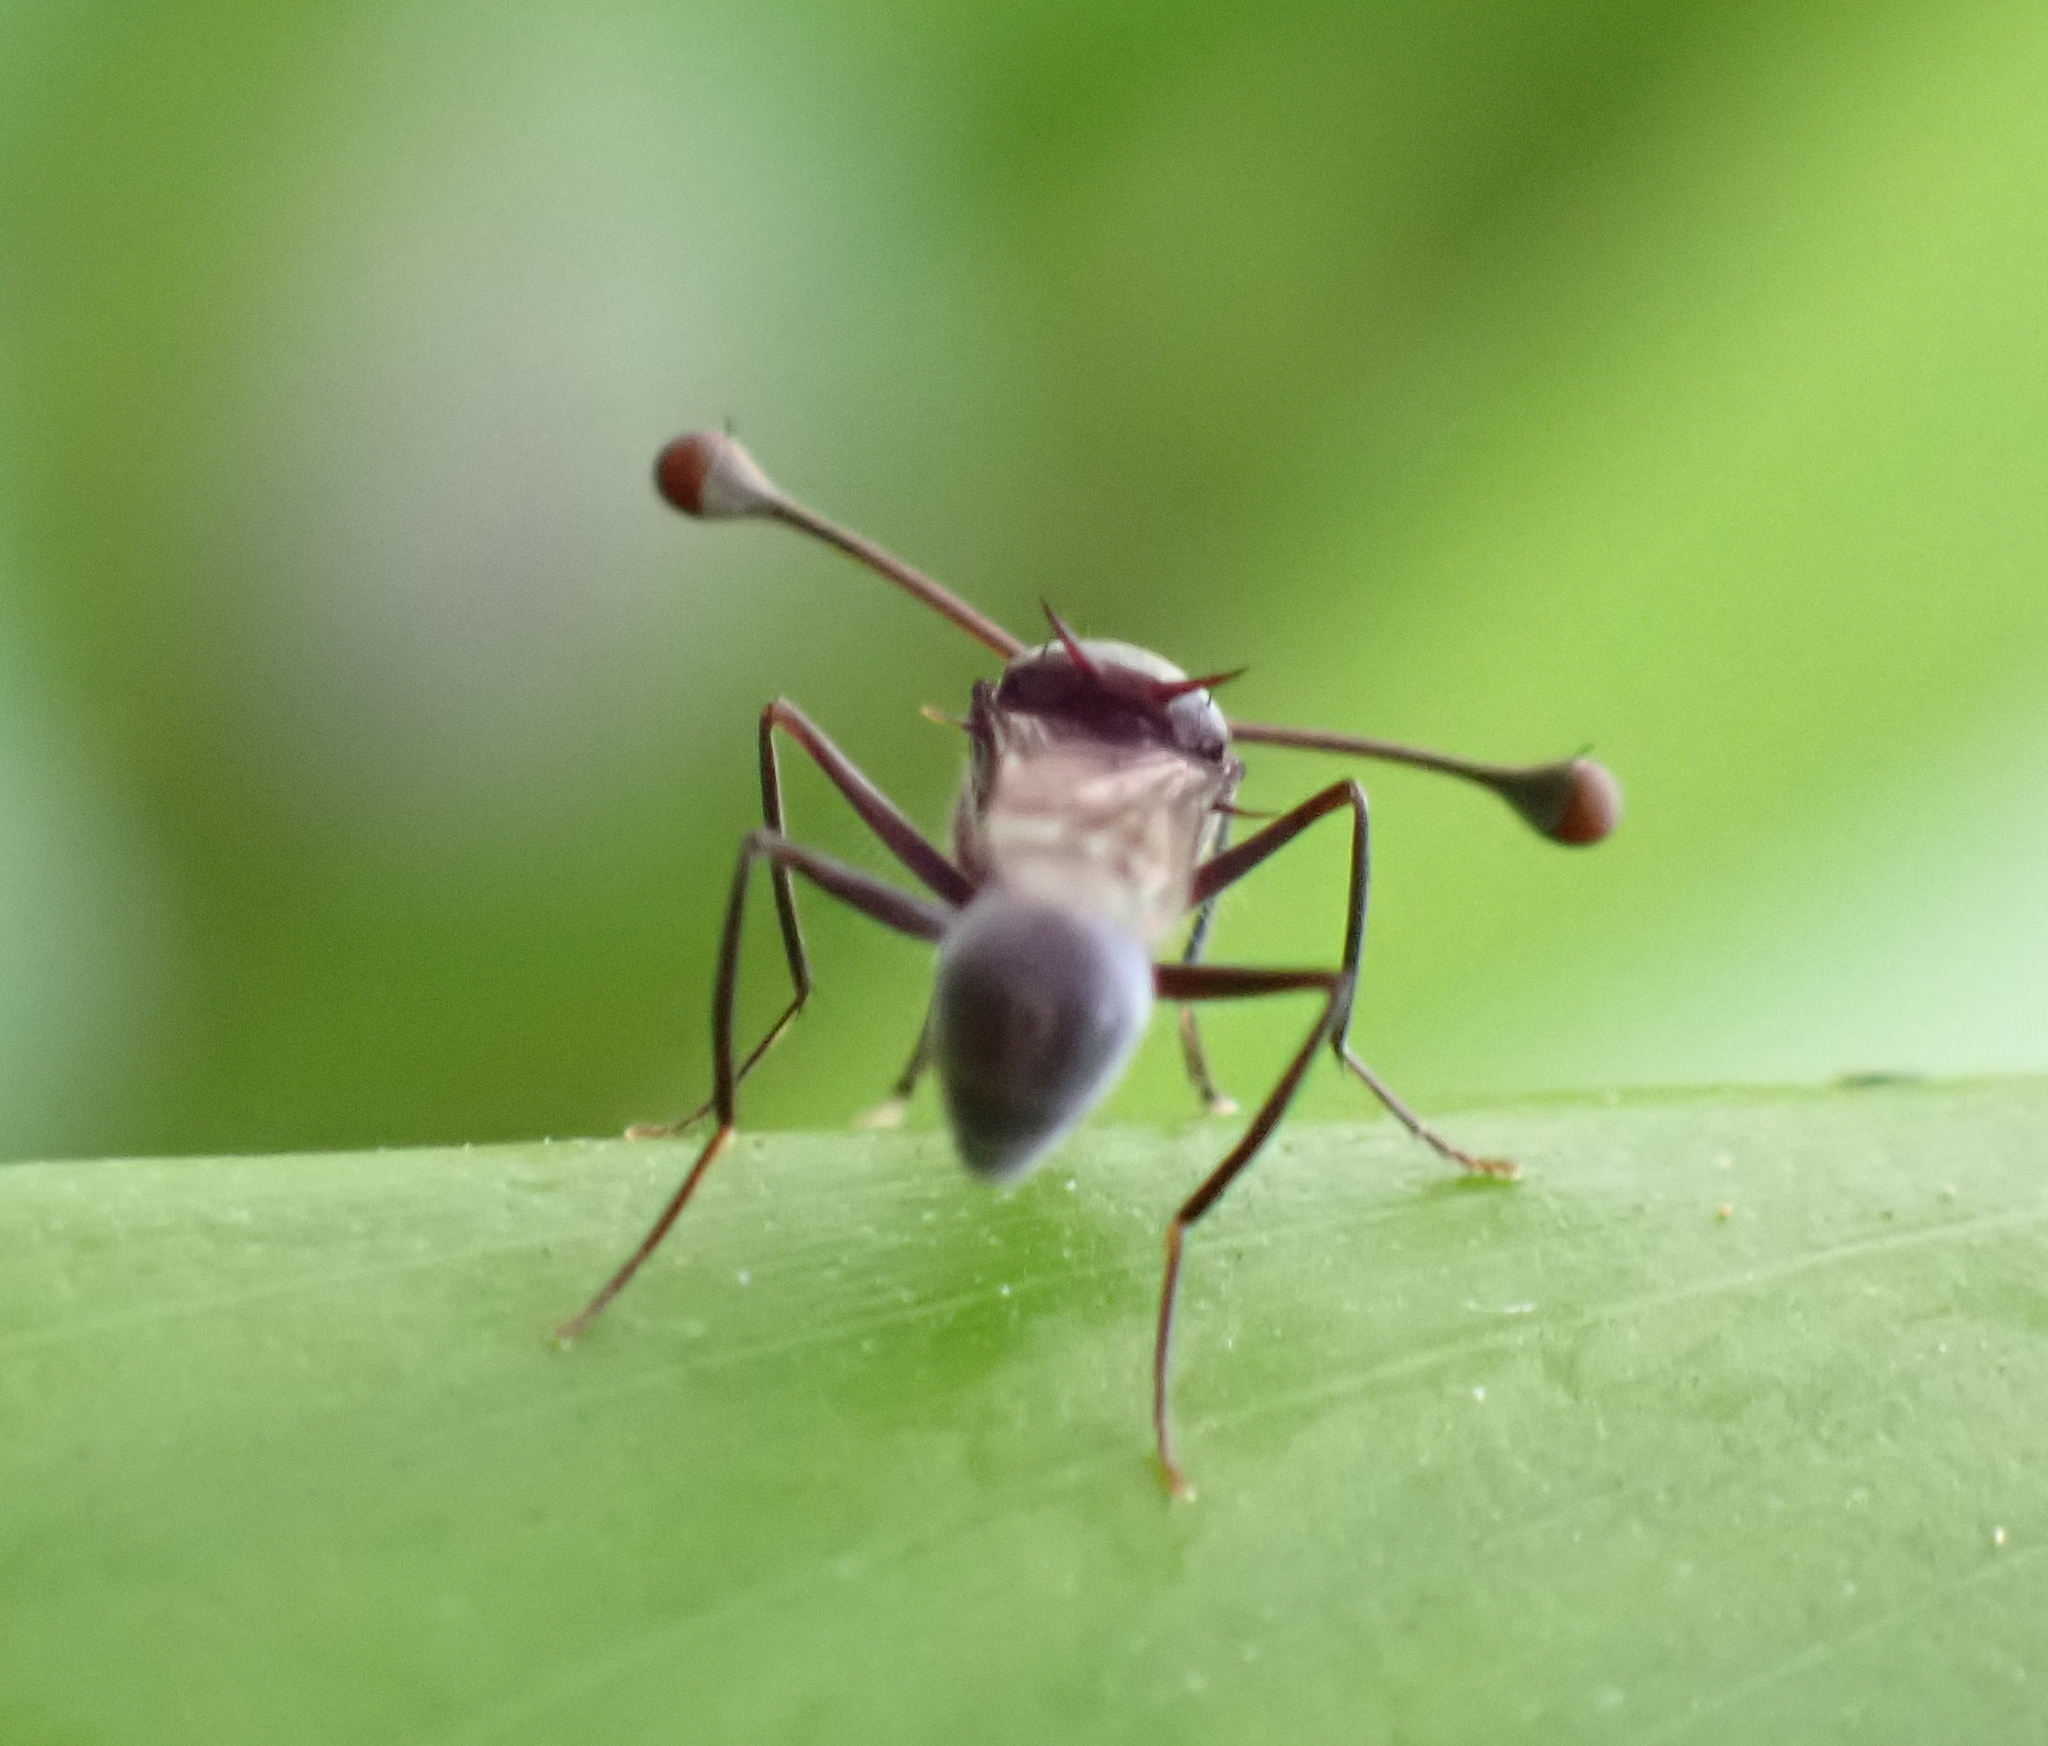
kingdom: Animalia
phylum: Arthropoda
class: Insecta
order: Diptera
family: Diopsidae
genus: Chaetodiopsis
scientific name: Chaetodiopsis
